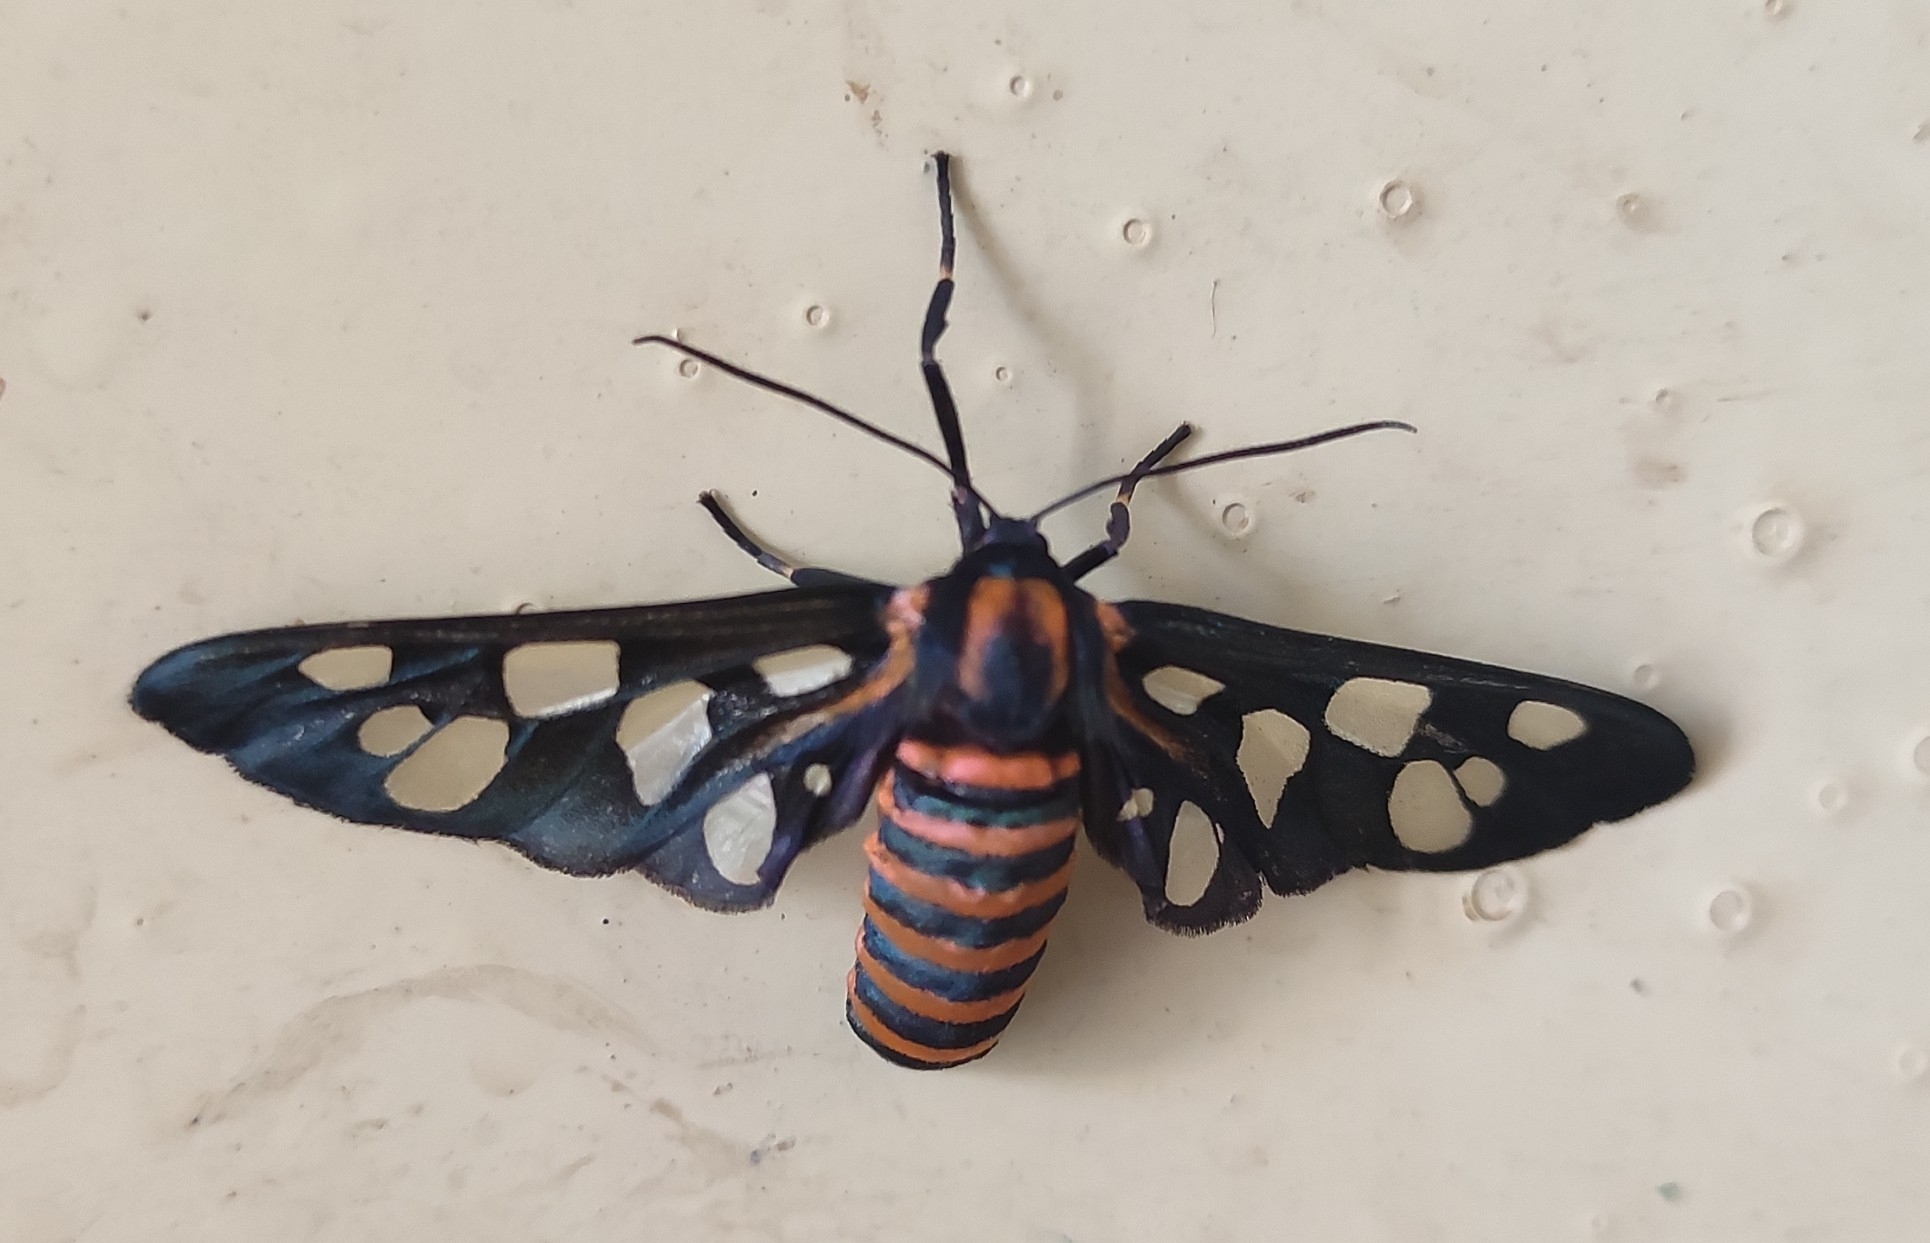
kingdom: Animalia
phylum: Arthropoda
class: Insecta
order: Lepidoptera
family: Erebidae
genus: Amata
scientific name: Amata passalis
